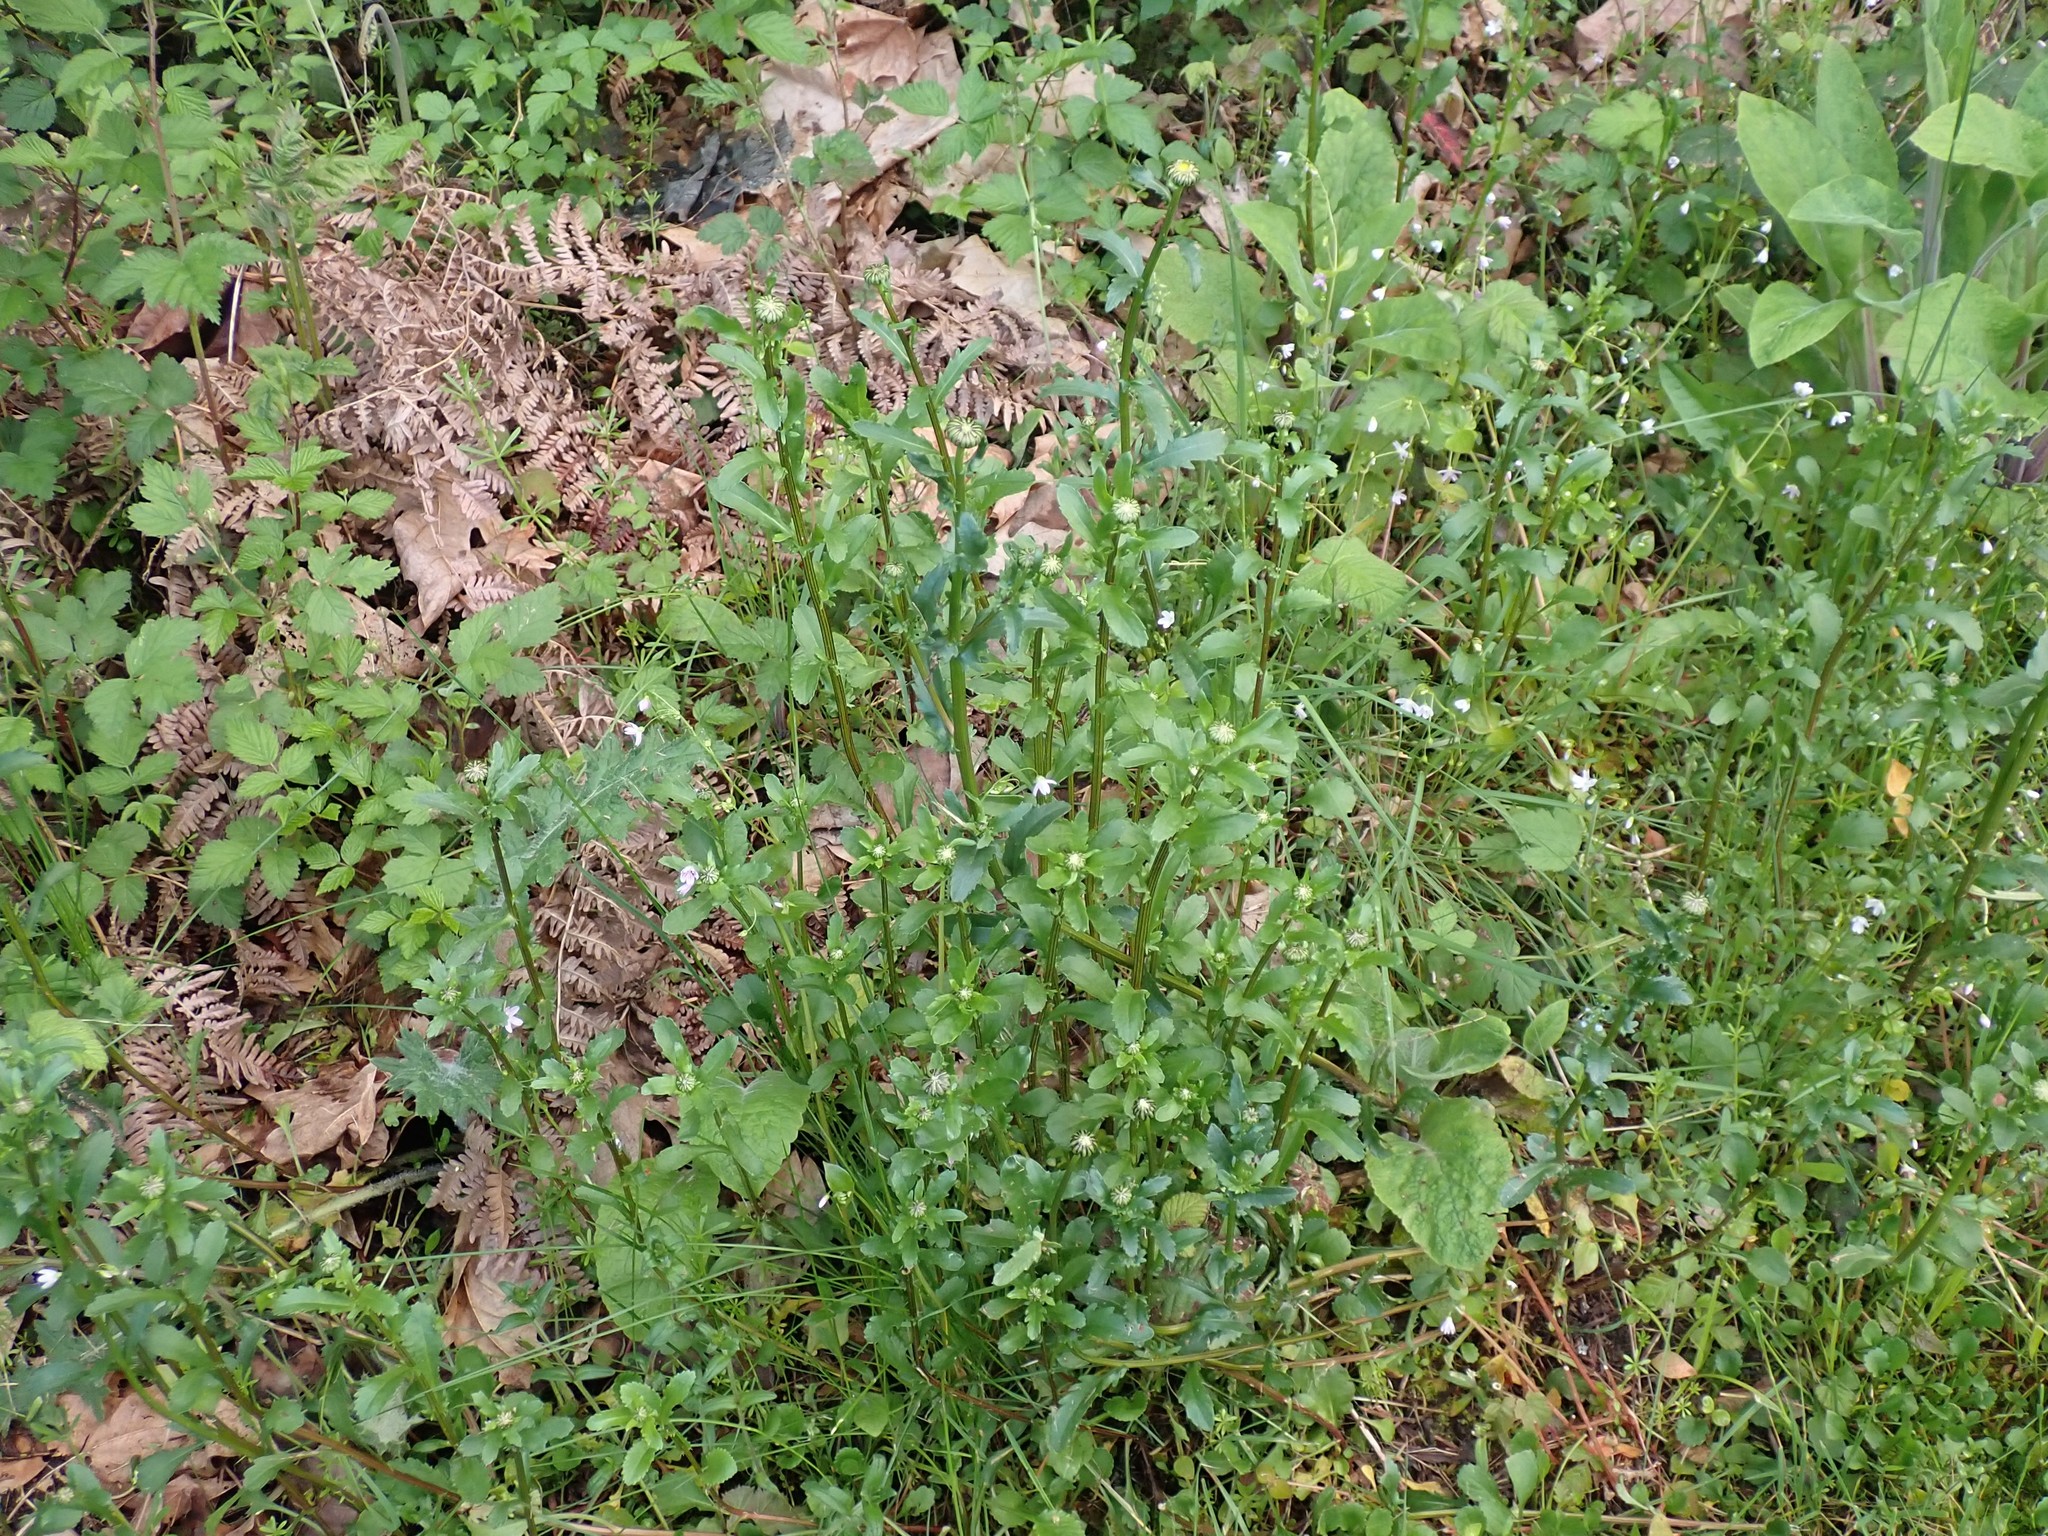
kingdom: Plantae
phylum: Tracheophyta
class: Magnoliopsida
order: Asterales
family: Asteraceae
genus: Leucanthemum
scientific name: Leucanthemum vulgare
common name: Oxeye daisy
